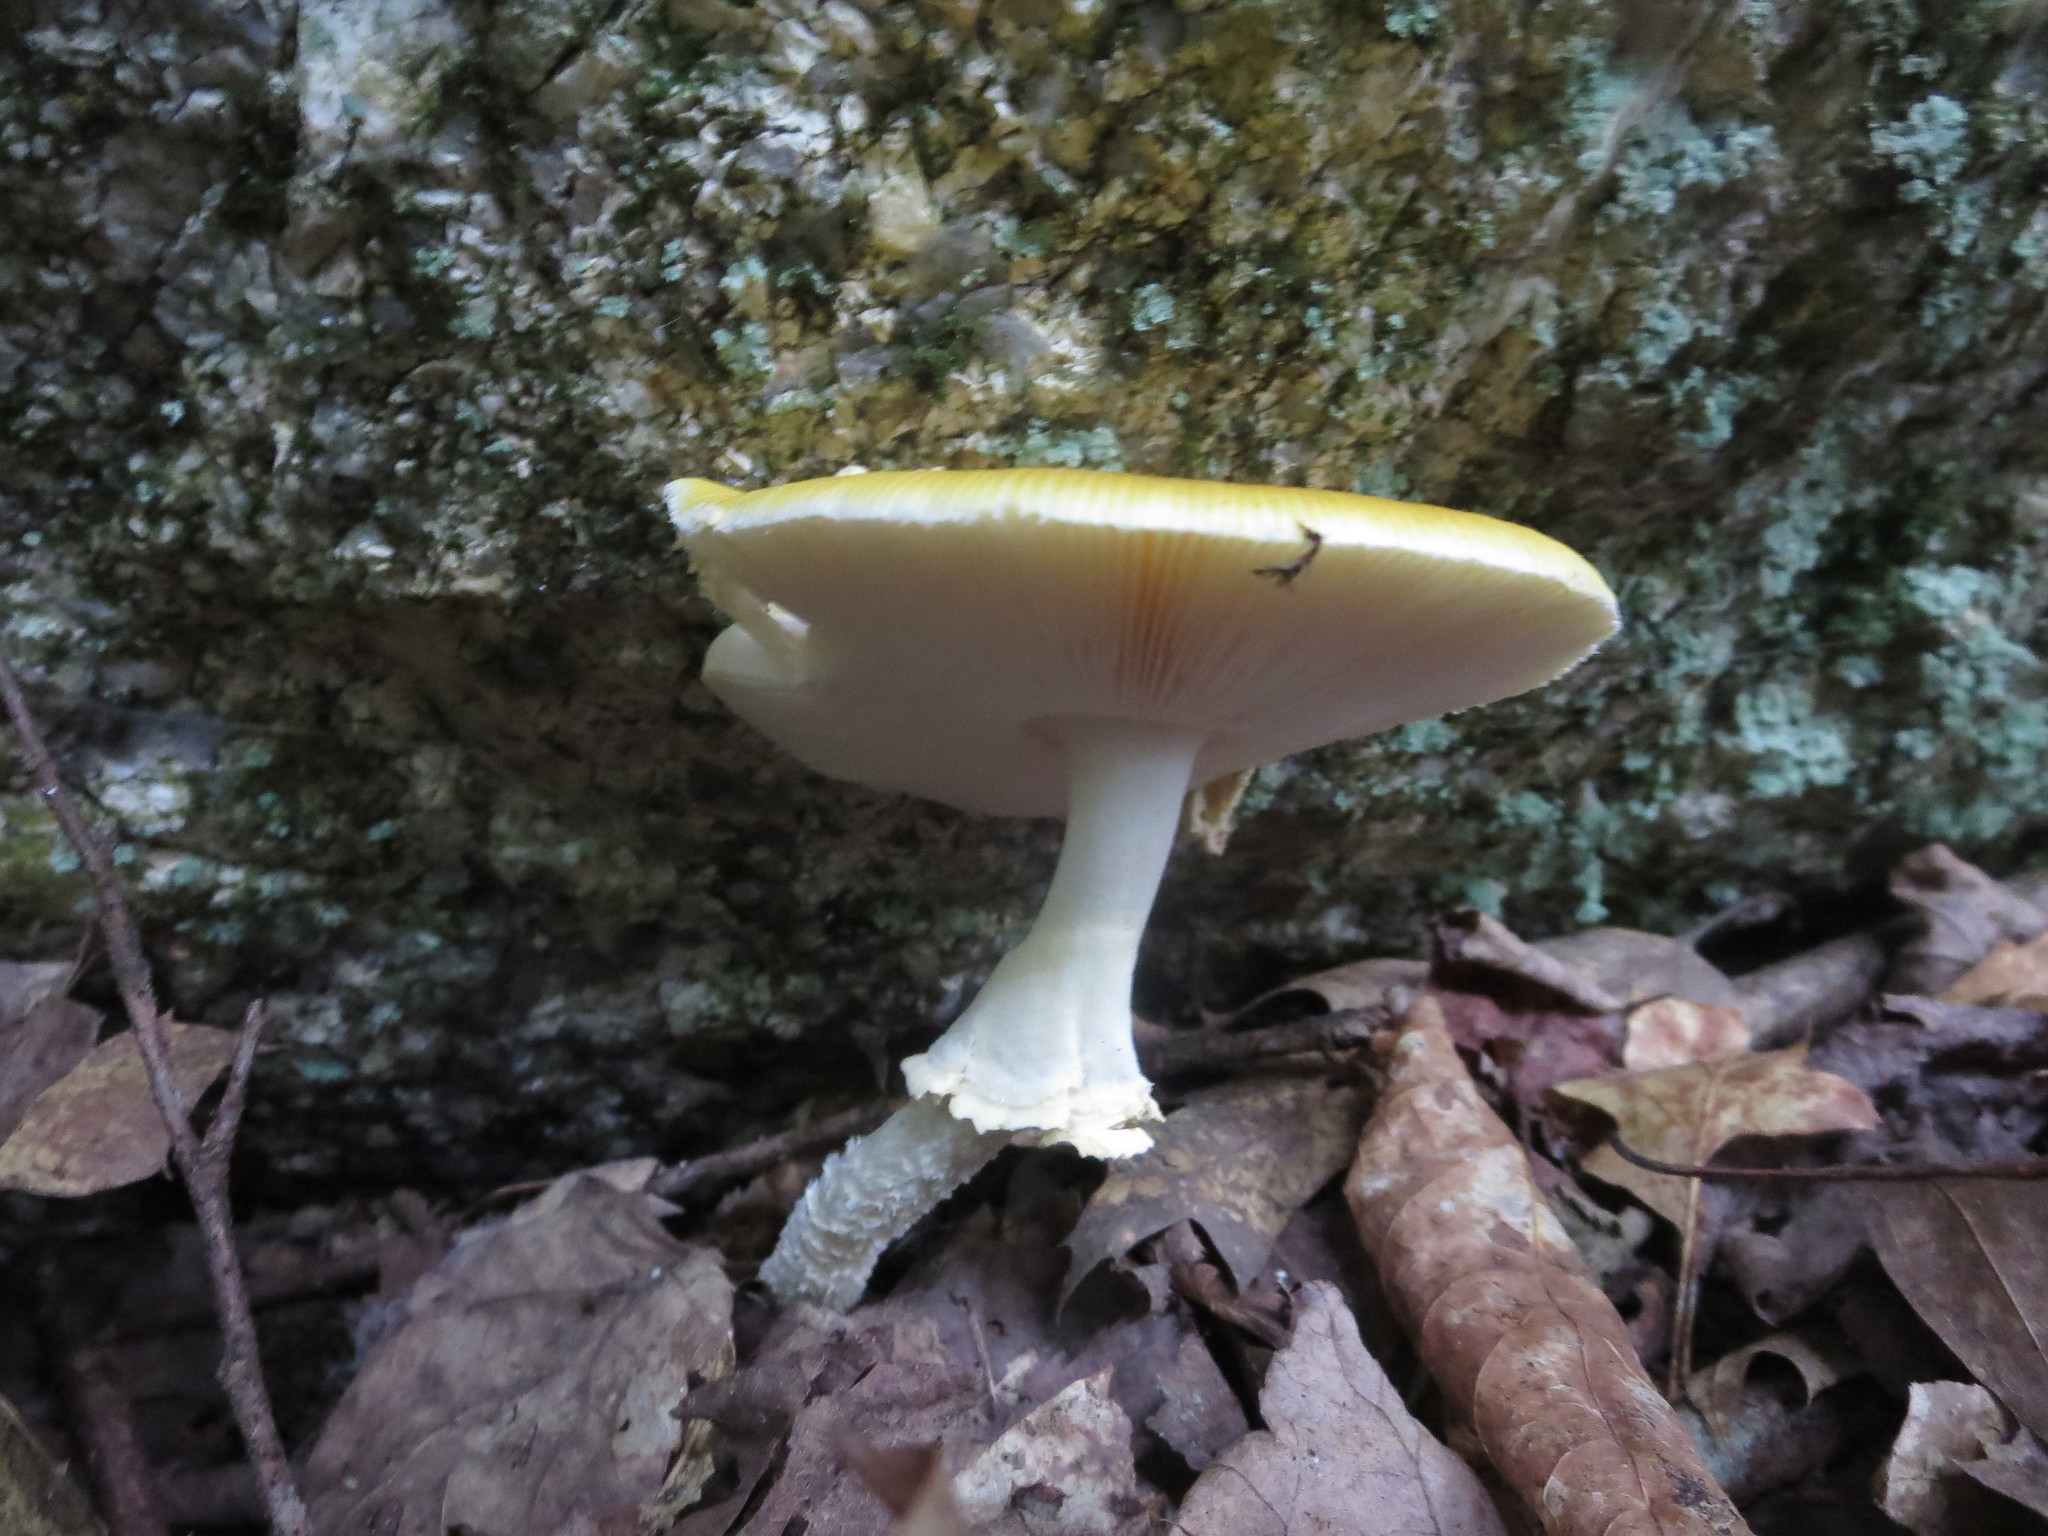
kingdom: Fungi
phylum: Basidiomycota
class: Agaricomycetes
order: Agaricales
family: Amanitaceae
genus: Amanita
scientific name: Amanita muscaria
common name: Fly agaric
